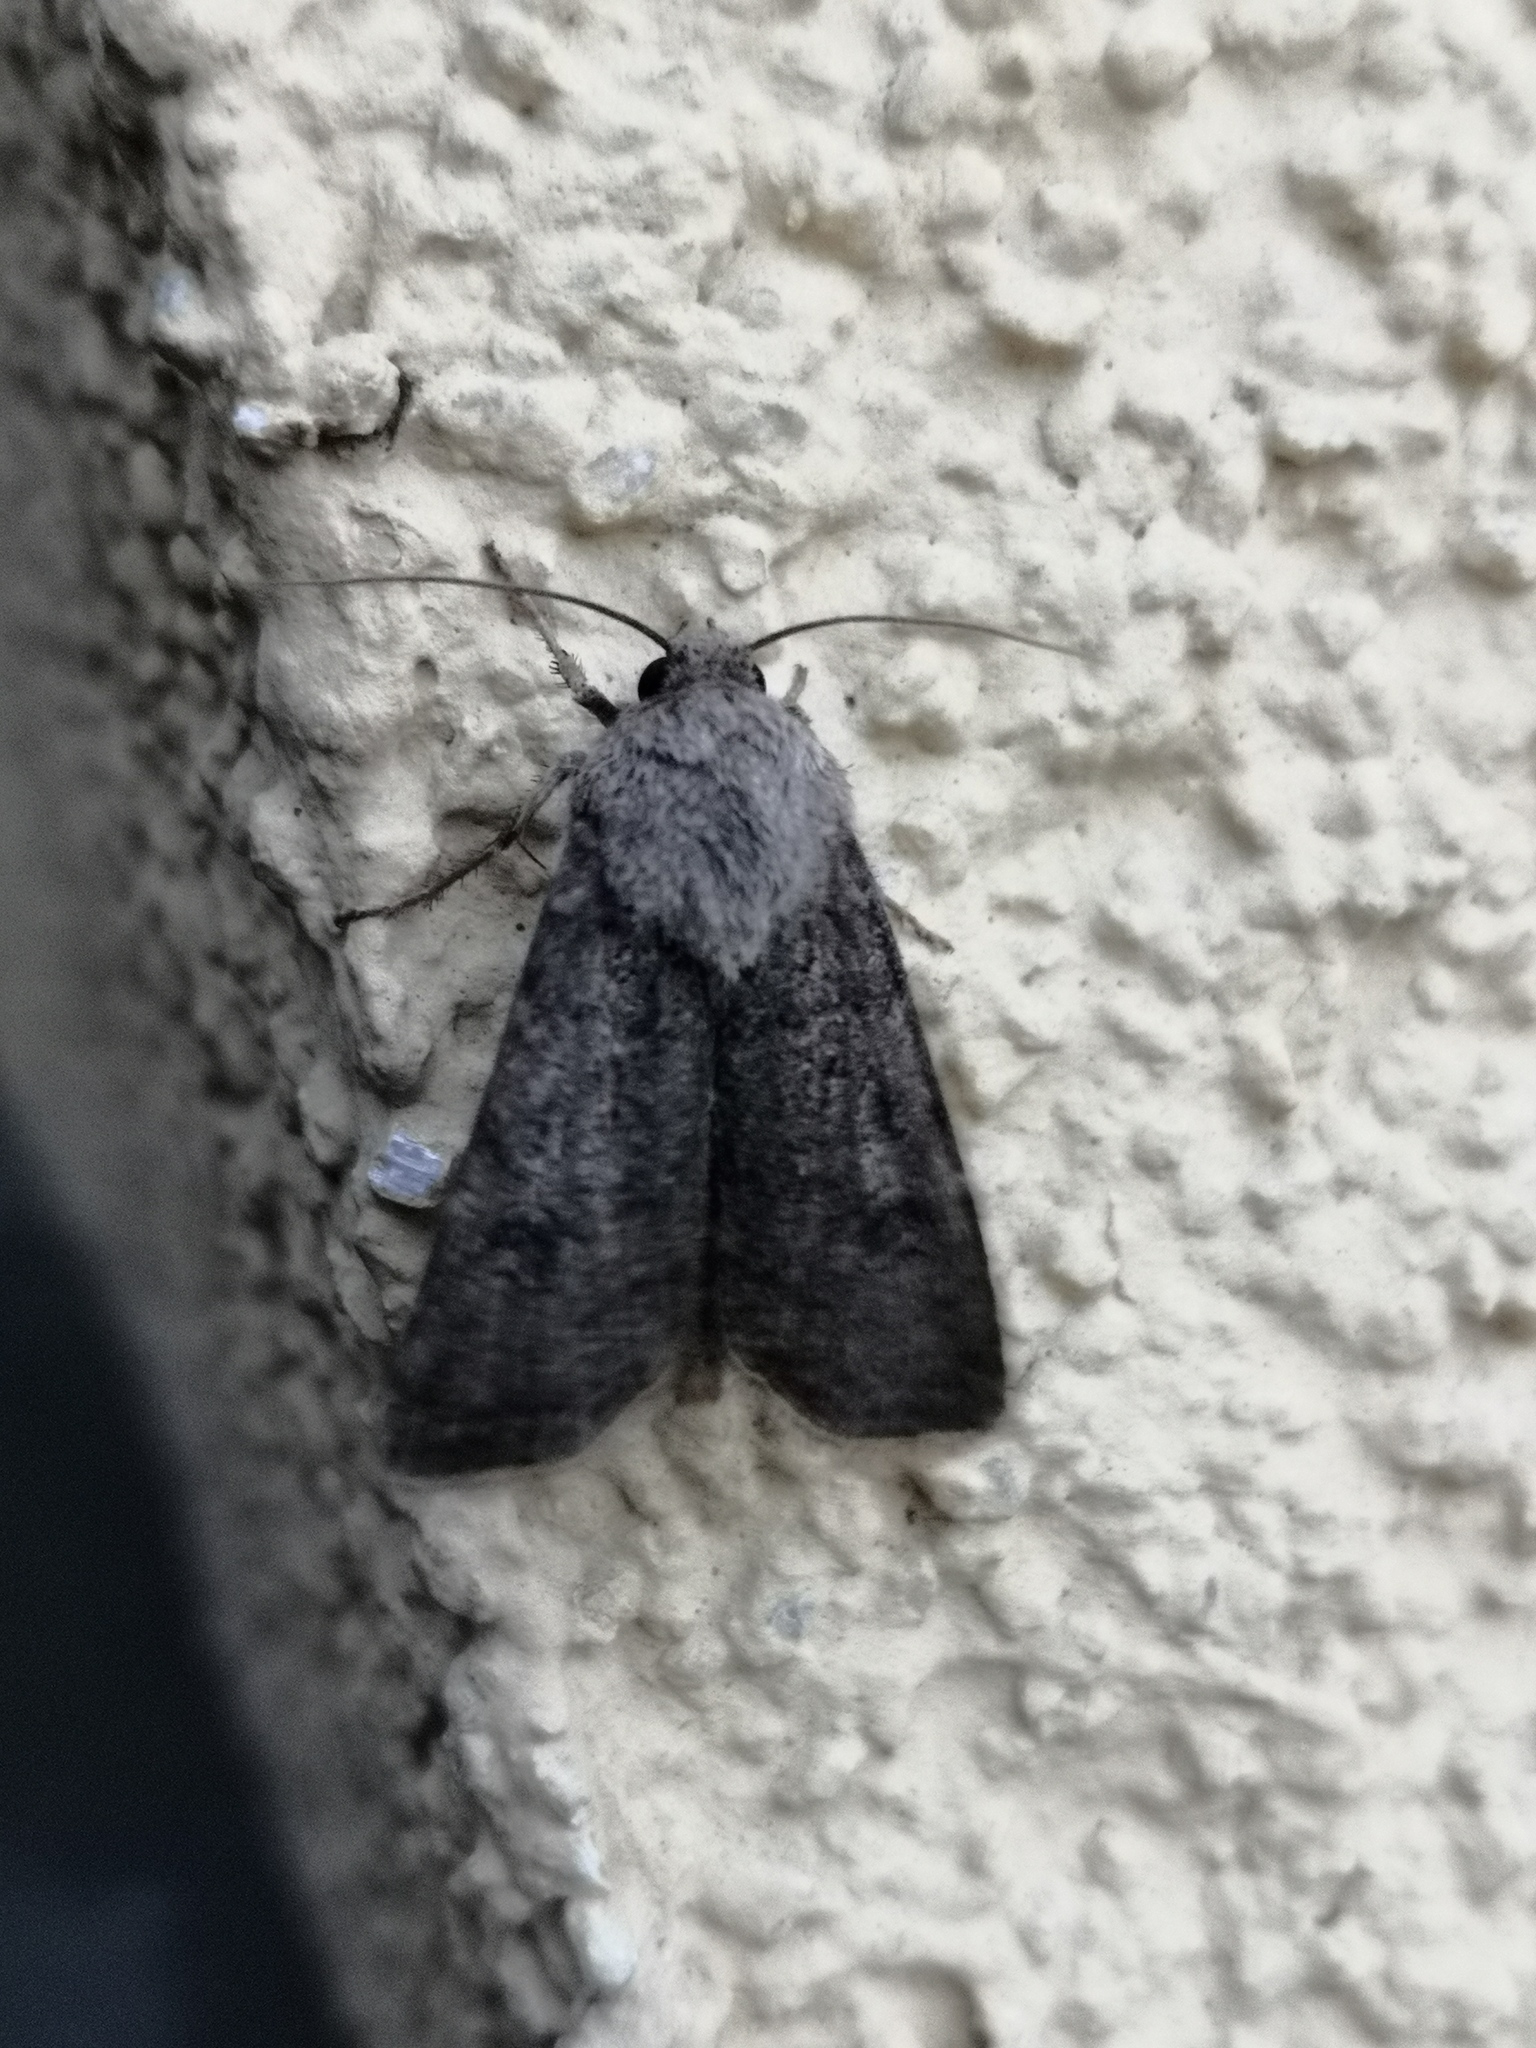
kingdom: Animalia
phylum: Arthropoda
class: Insecta
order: Lepidoptera
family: Noctuidae
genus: Agrotis
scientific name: Agrotis segetum
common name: Turnip moth
